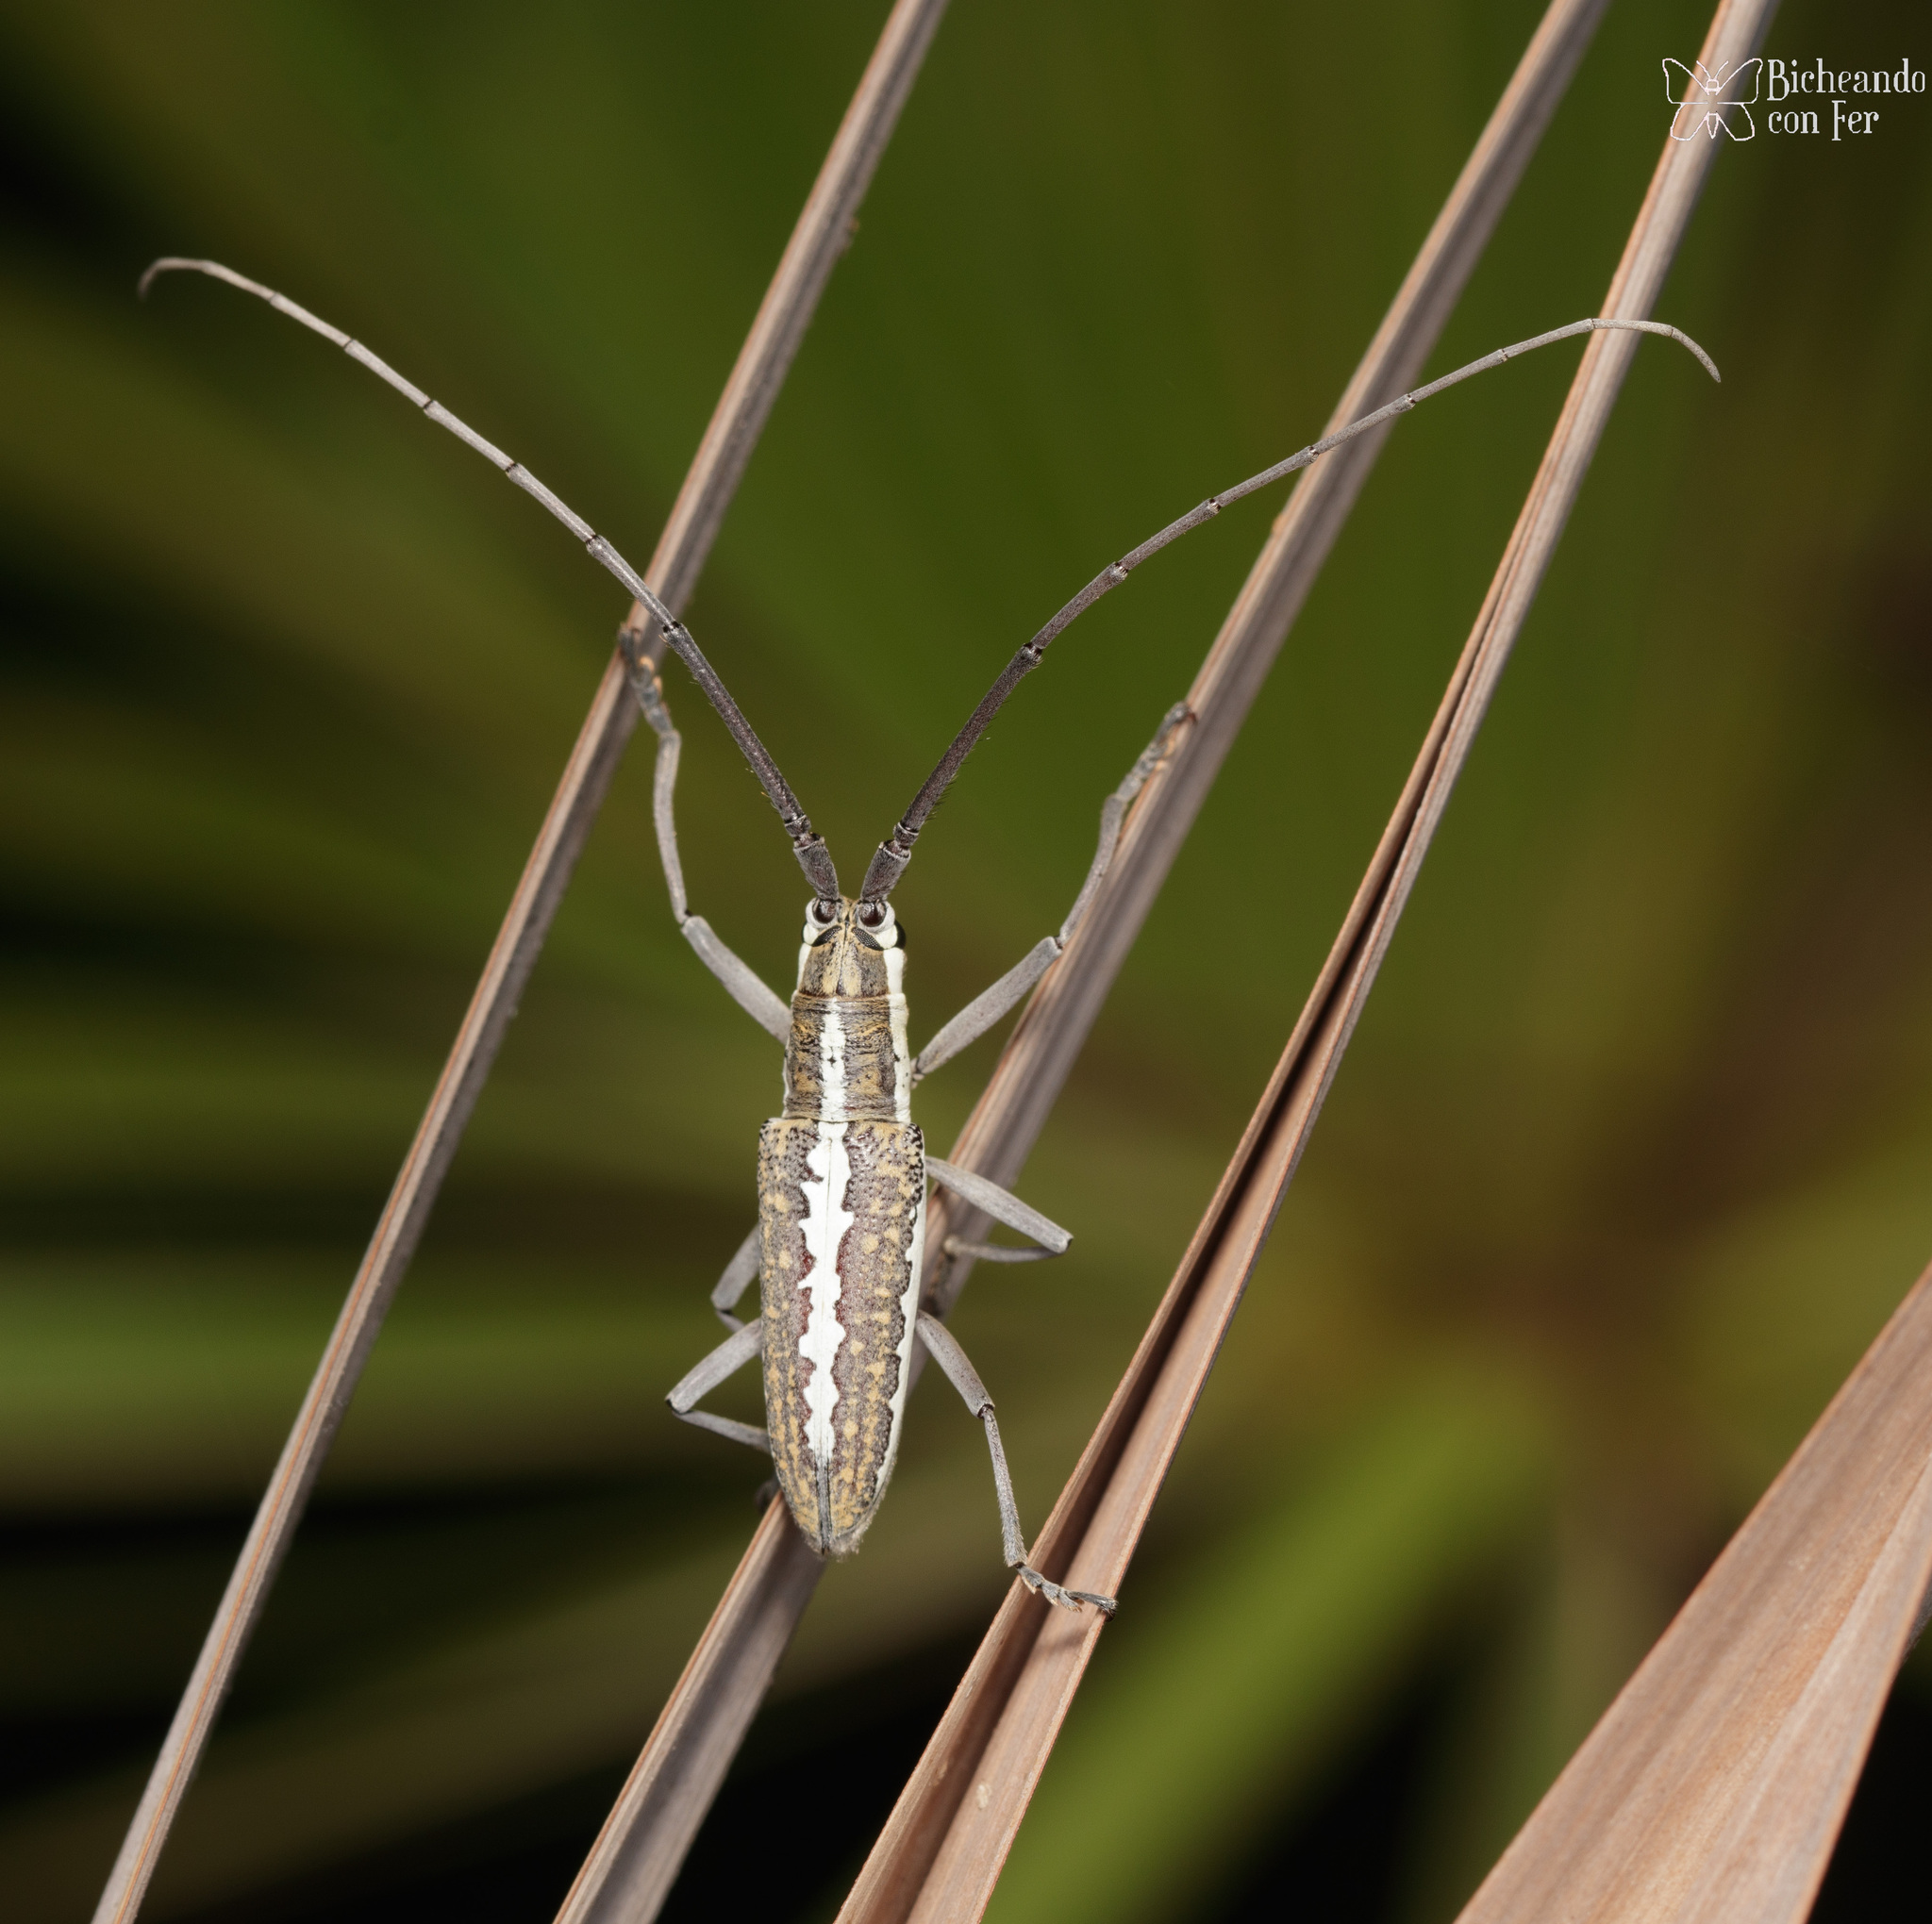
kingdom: Animalia
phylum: Arthropoda
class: Insecta
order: Coleoptera
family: Cerambycidae
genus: Neoptychodes
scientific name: Neoptychodes trilineatus
